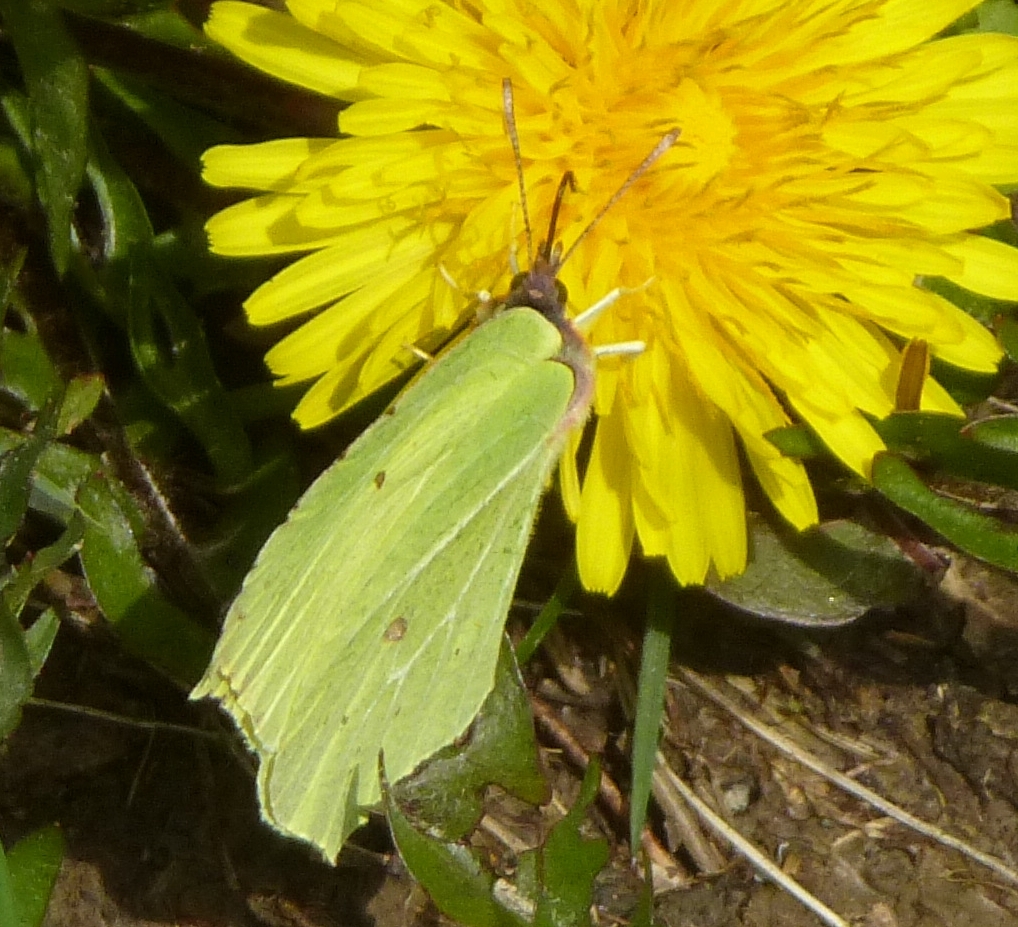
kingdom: Animalia
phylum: Arthropoda
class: Insecta
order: Lepidoptera
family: Pieridae
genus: Gonepteryx
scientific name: Gonepteryx rhamni
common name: Brimstone
